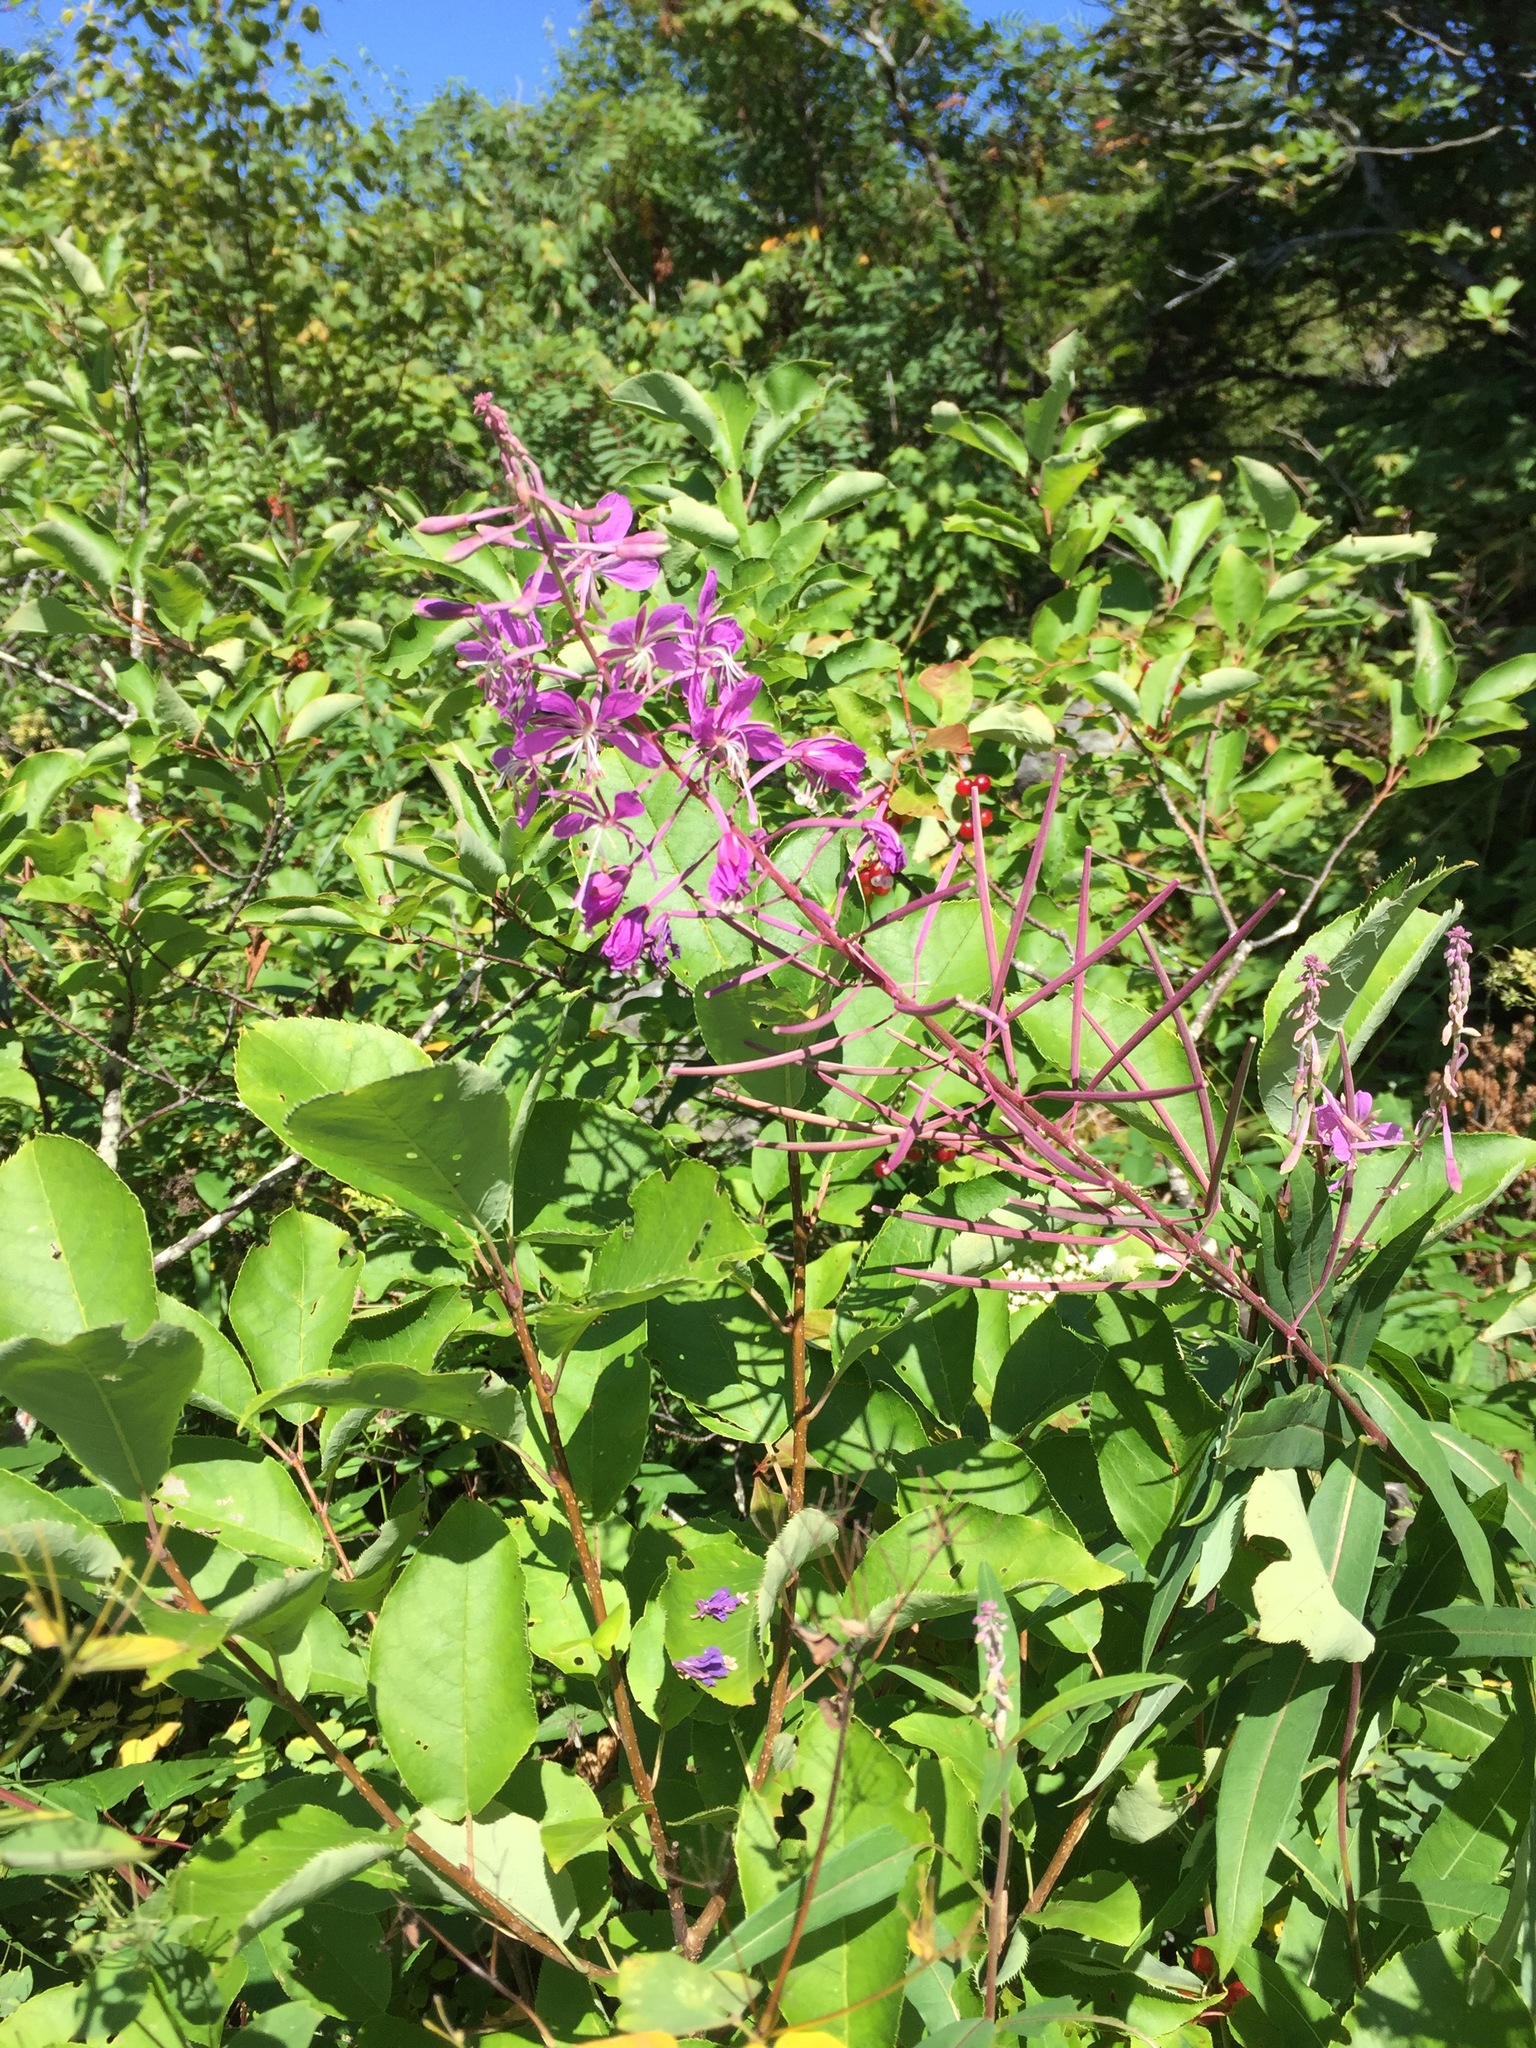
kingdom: Plantae
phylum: Tracheophyta
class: Magnoliopsida
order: Myrtales
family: Onagraceae
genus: Chamaenerion
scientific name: Chamaenerion angustifolium
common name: Fireweed
